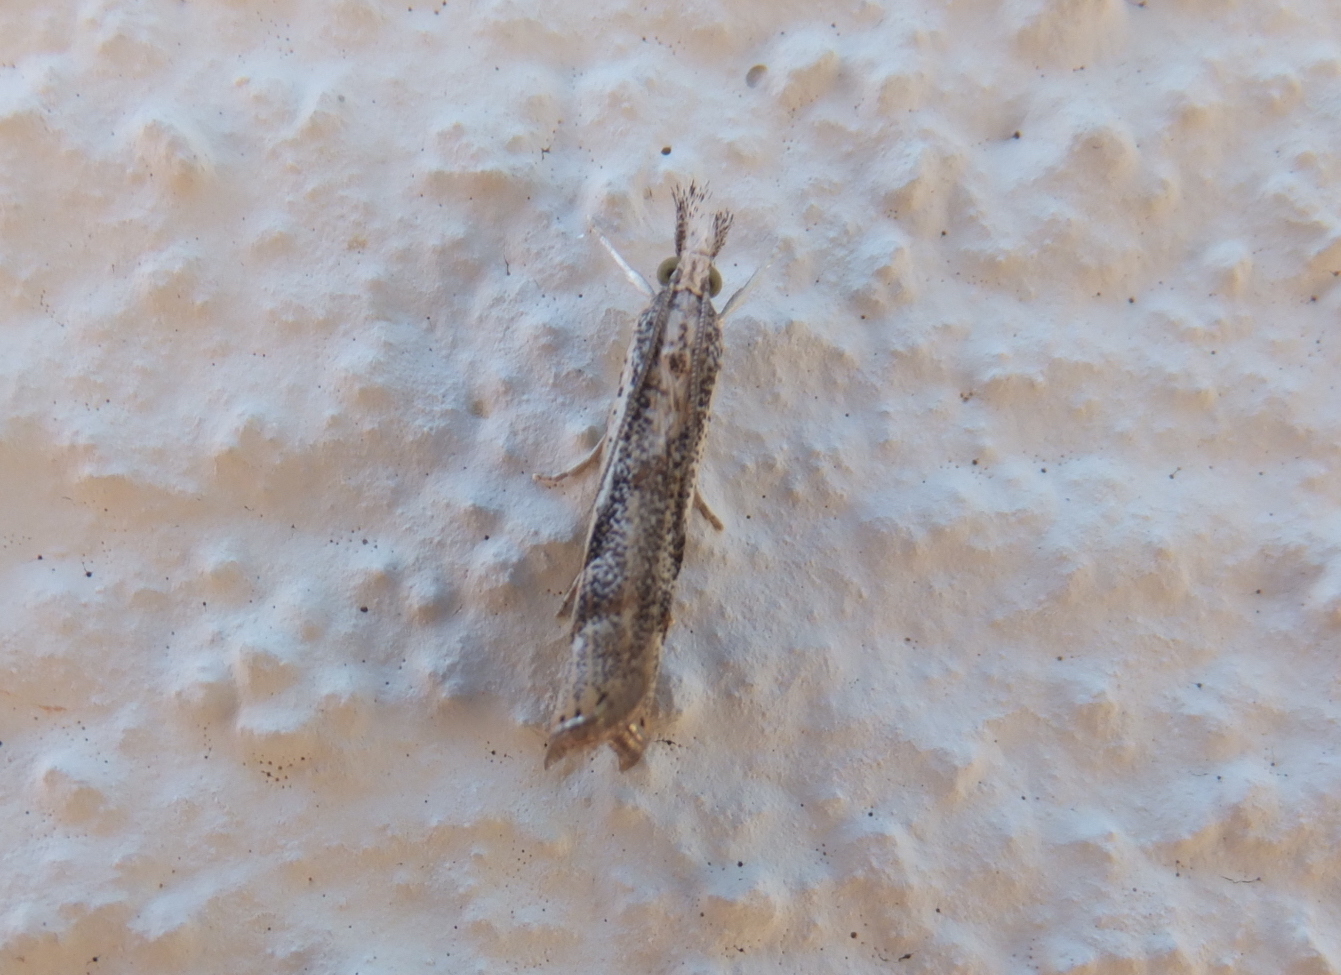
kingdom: Animalia
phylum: Arthropoda
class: Insecta
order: Lepidoptera
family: Crambidae
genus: Agriphila
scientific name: Agriphila tolli
